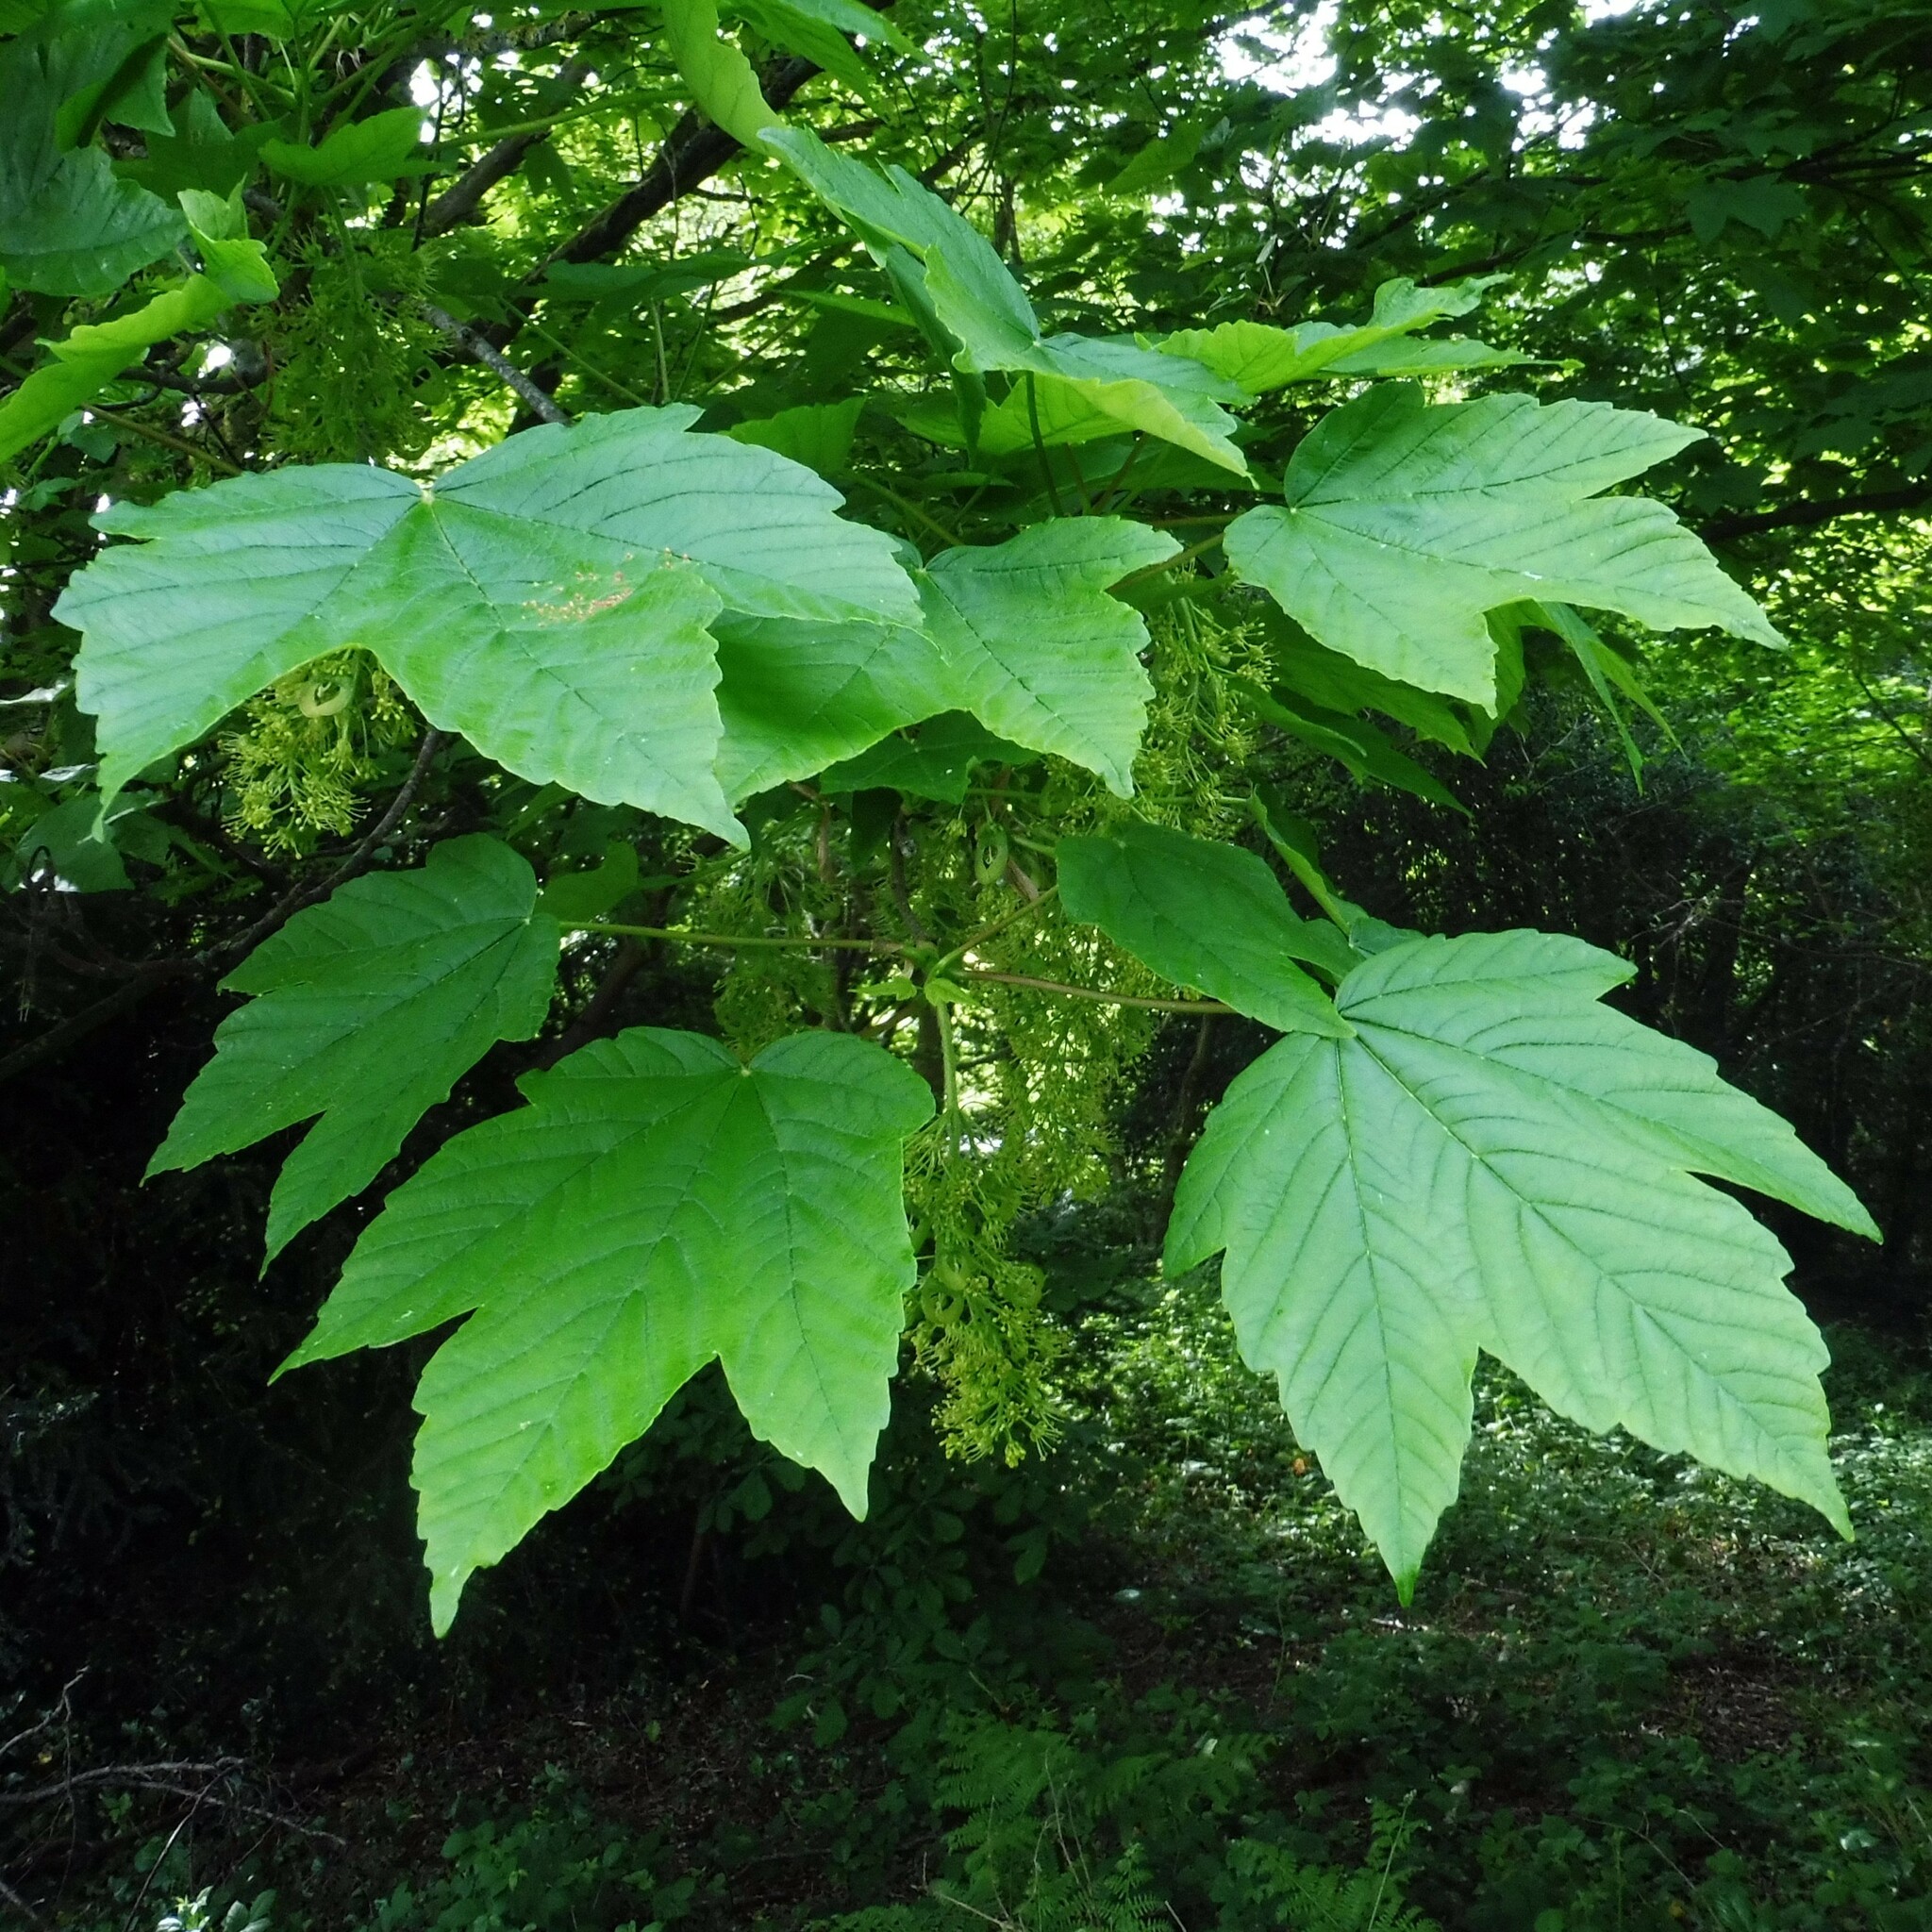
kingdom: Plantae
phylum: Tracheophyta
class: Magnoliopsida
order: Sapindales
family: Sapindaceae
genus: Acer
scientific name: Acer pseudoplatanus
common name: Sycamore
